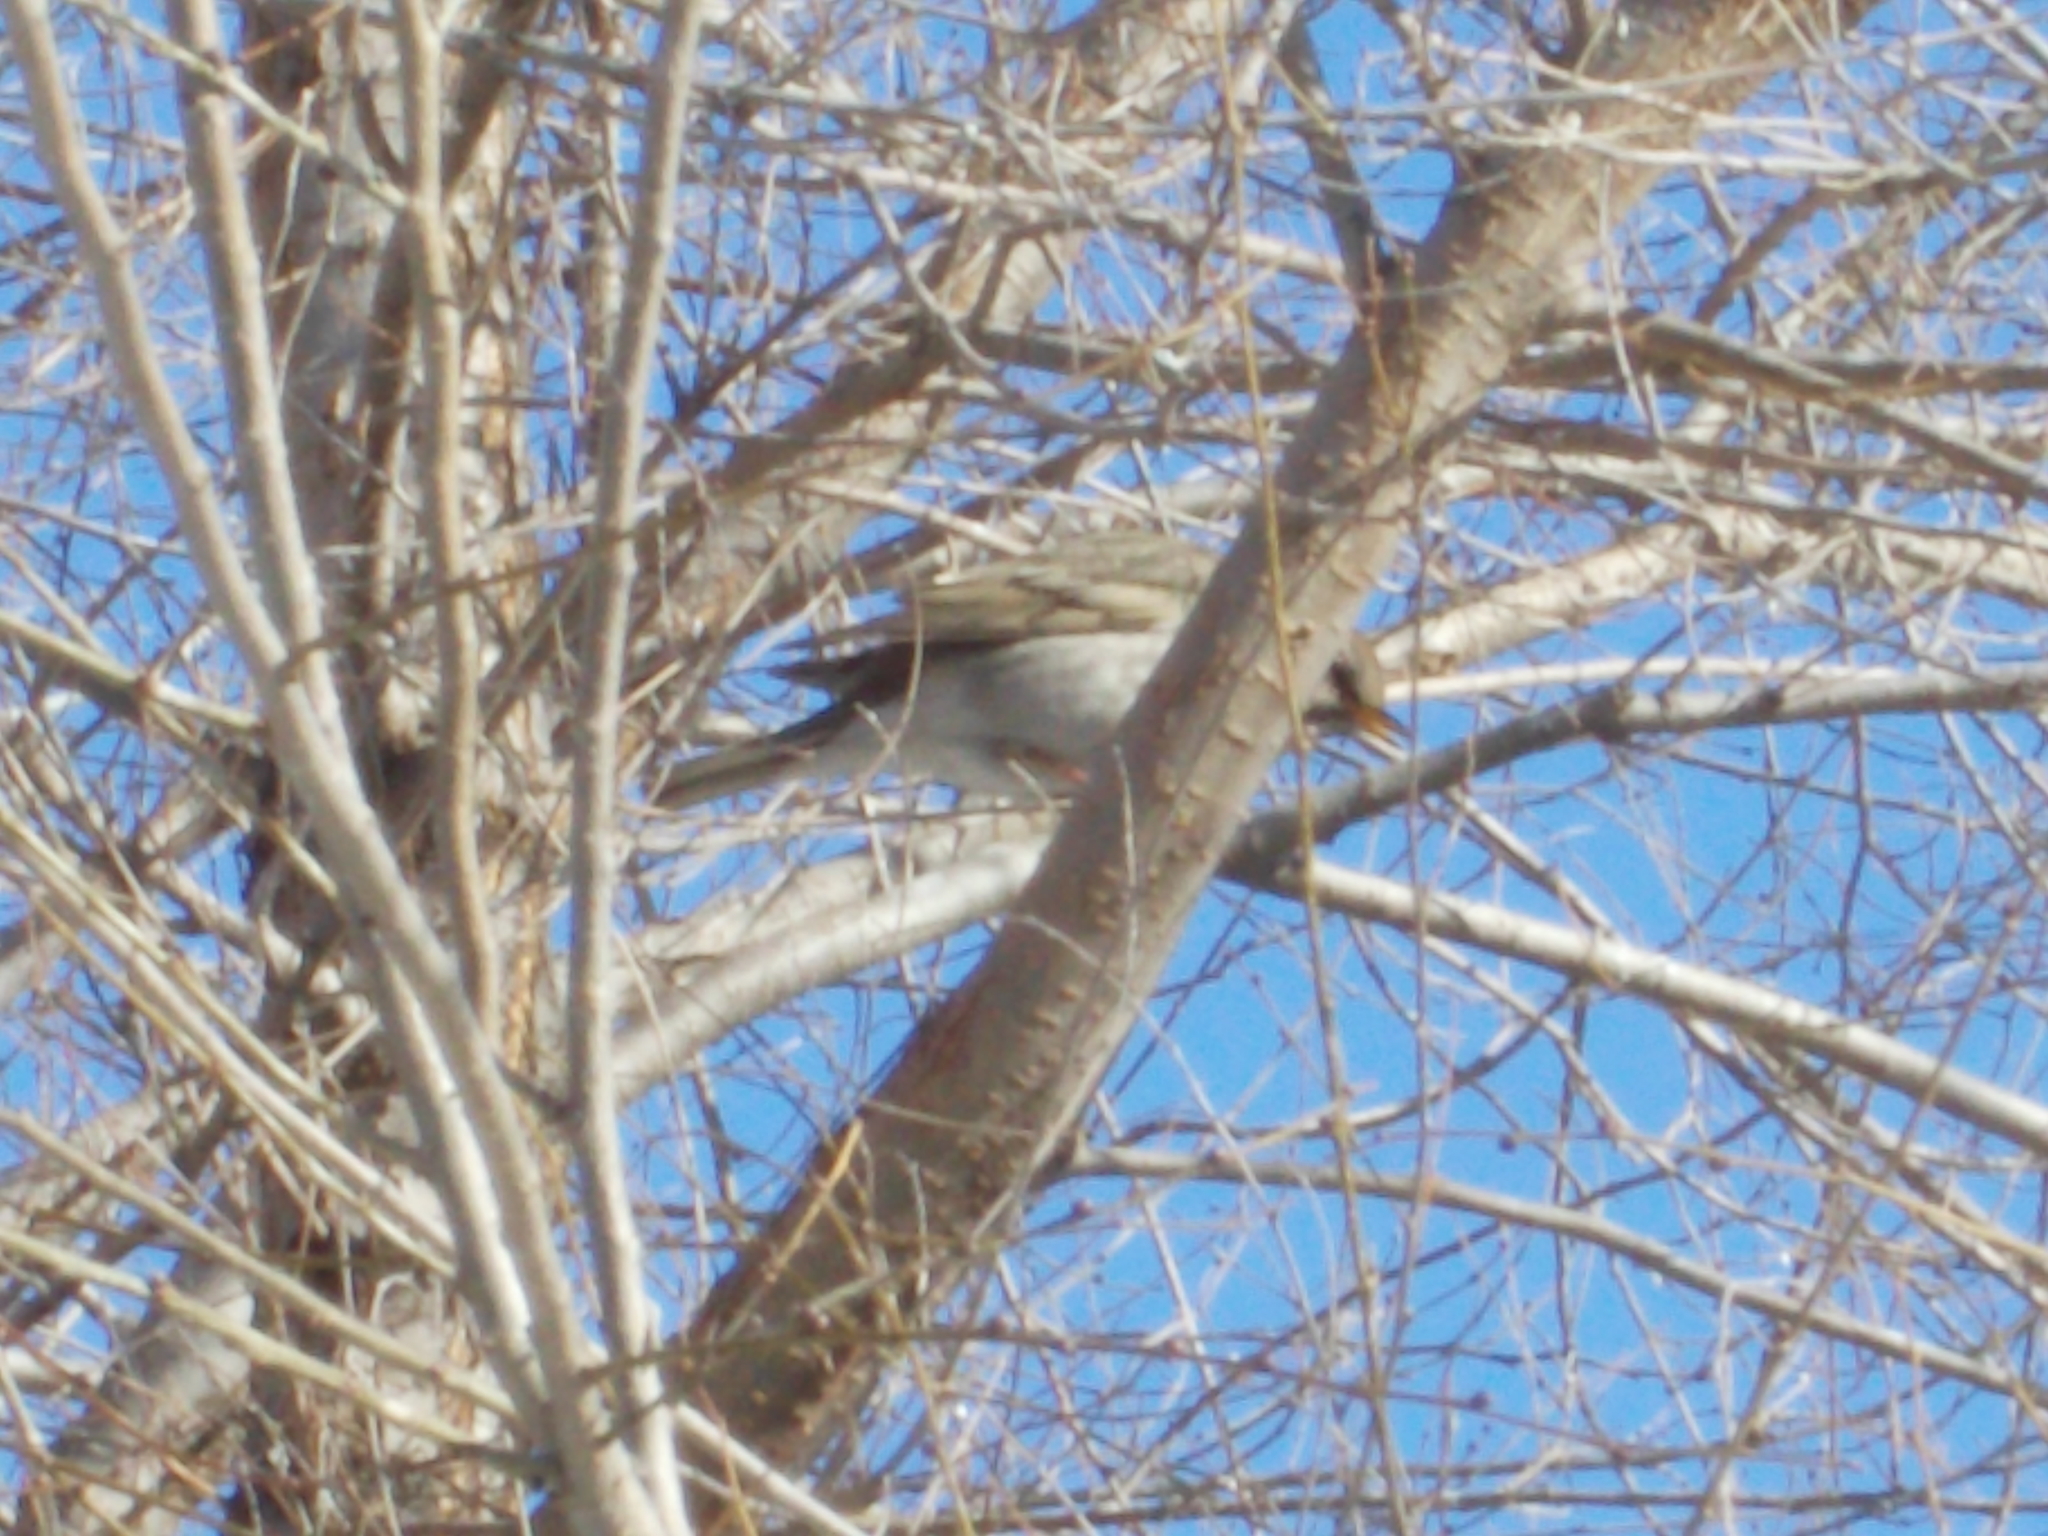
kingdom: Animalia
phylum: Chordata
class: Aves
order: Passeriformes
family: Turdidae
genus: Turdus
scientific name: Turdus atrogularis
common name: Black-throated thrush
